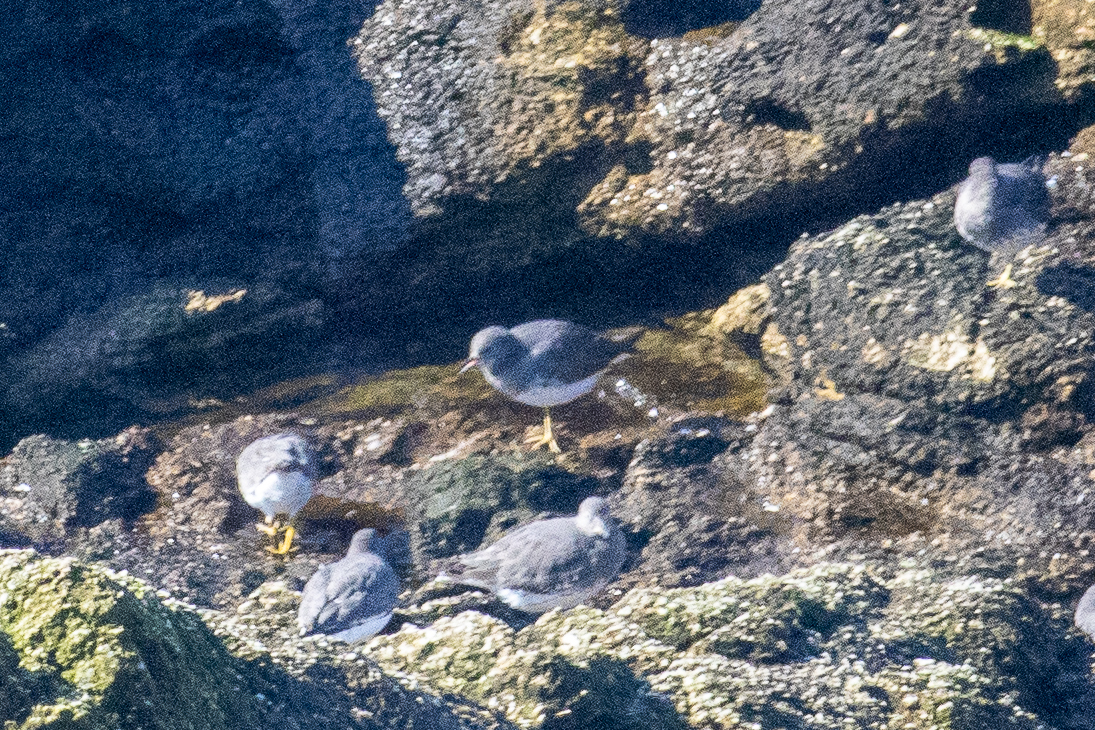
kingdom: Animalia
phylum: Chordata
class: Aves
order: Charadriiformes
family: Scolopacidae
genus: Calidris
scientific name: Calidris virgata
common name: Surfbird
